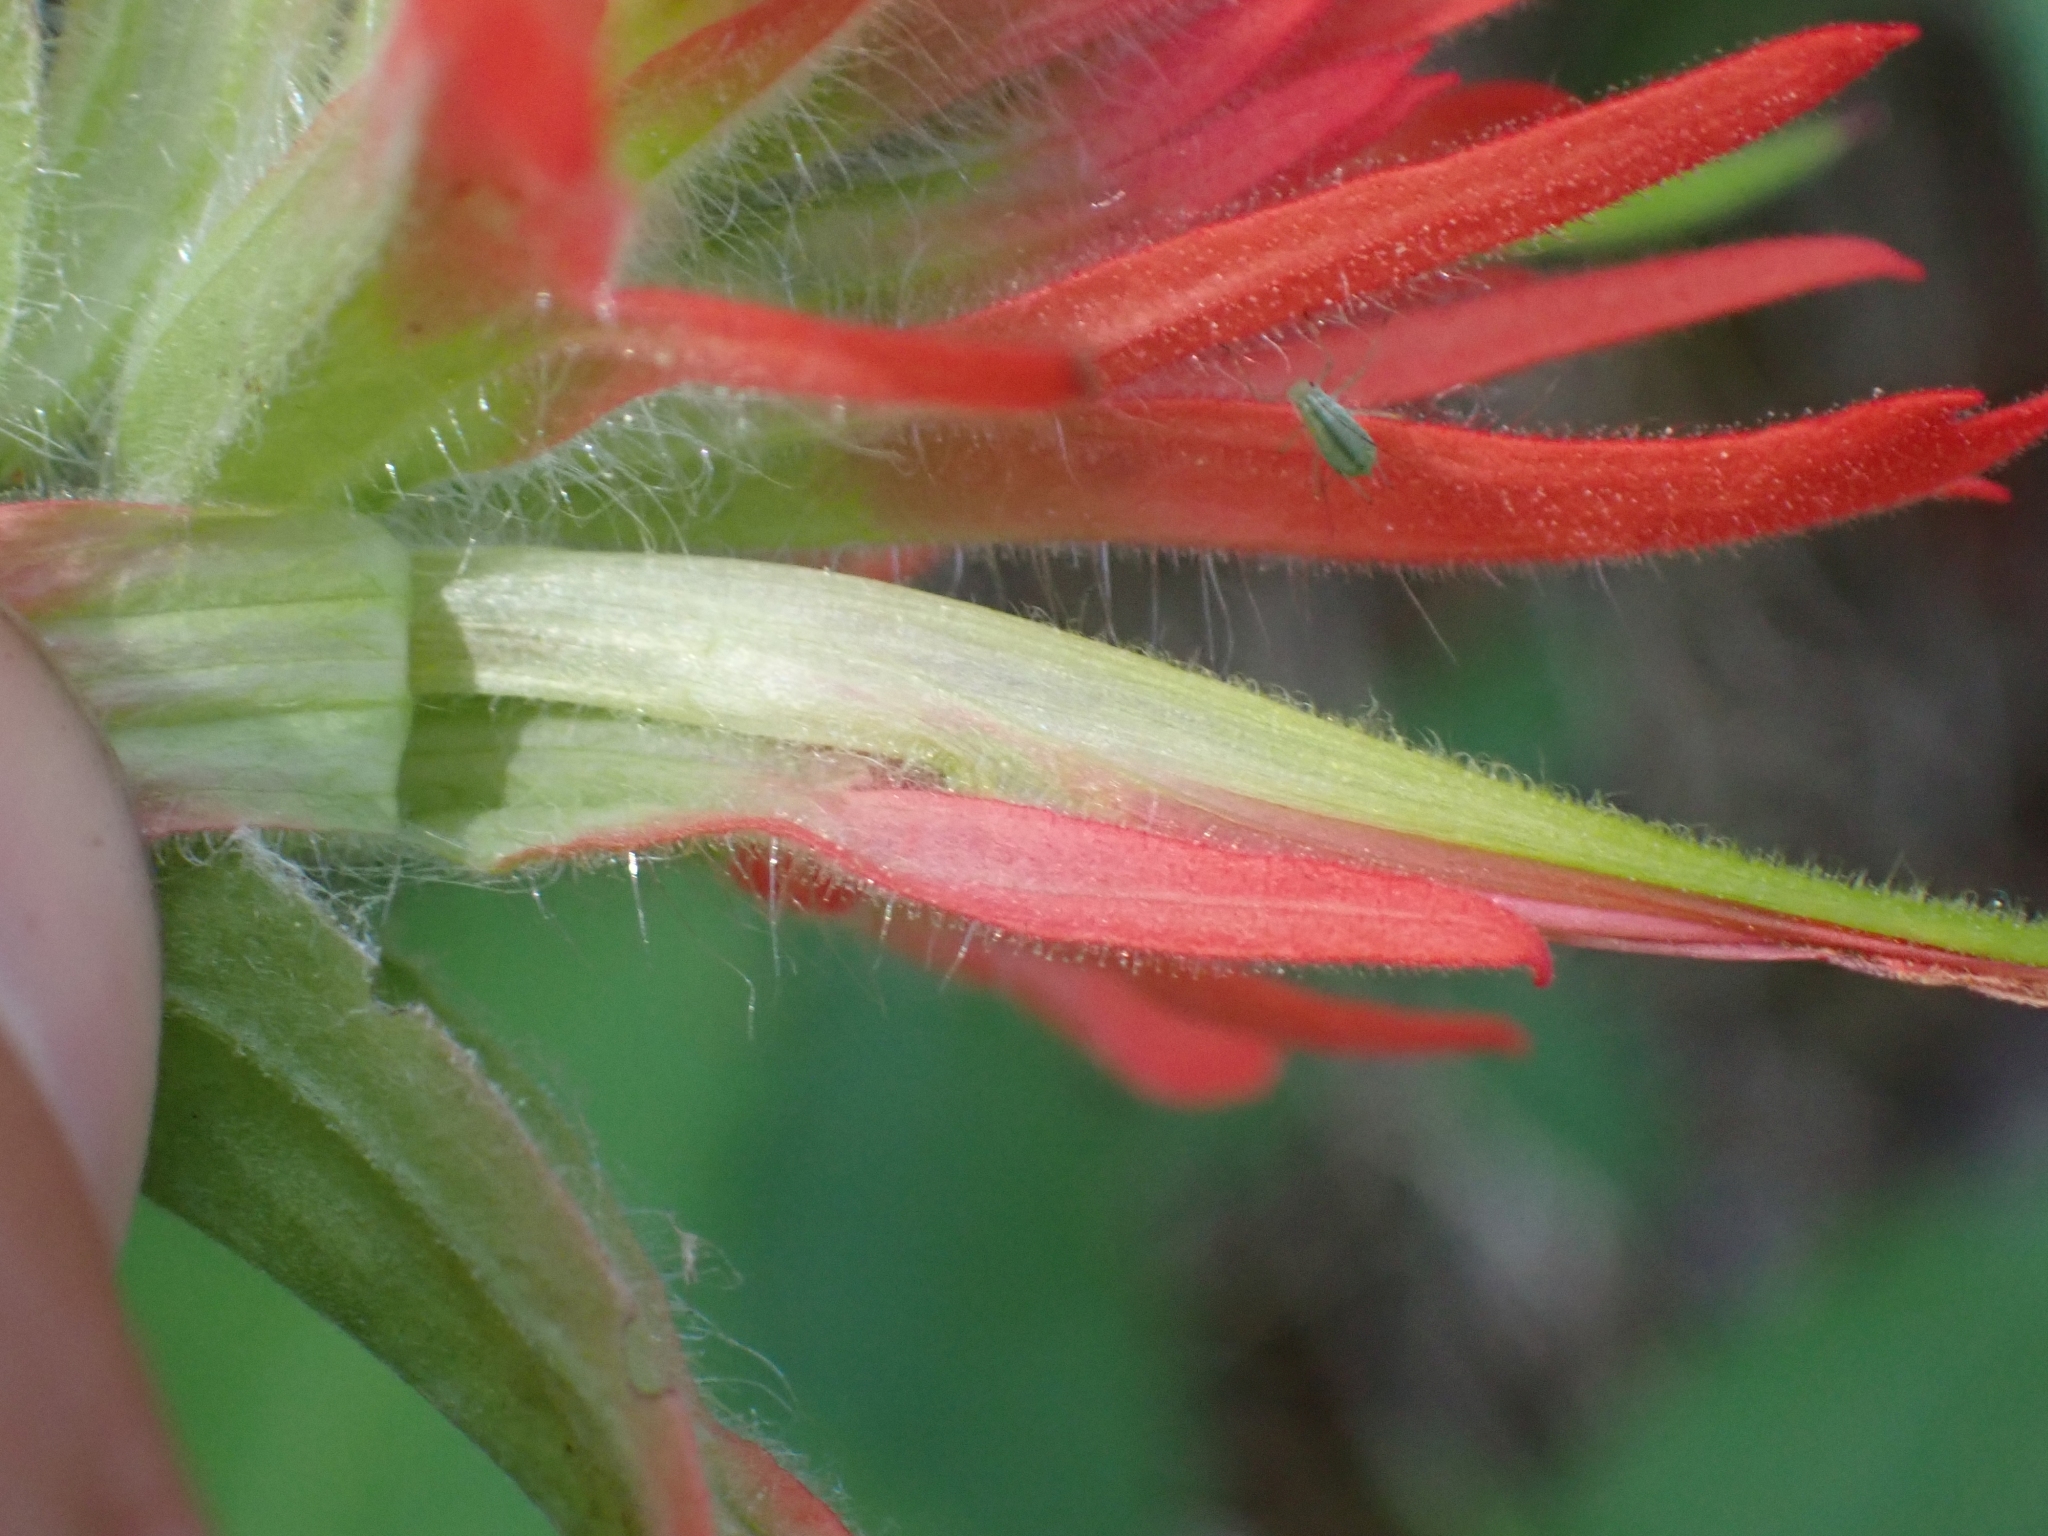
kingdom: Plantae
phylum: Tracheophyta
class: Magnoliopsida
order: Lamiales
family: Orobanchaceae
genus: Castilleja
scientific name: Castilleja miniata
